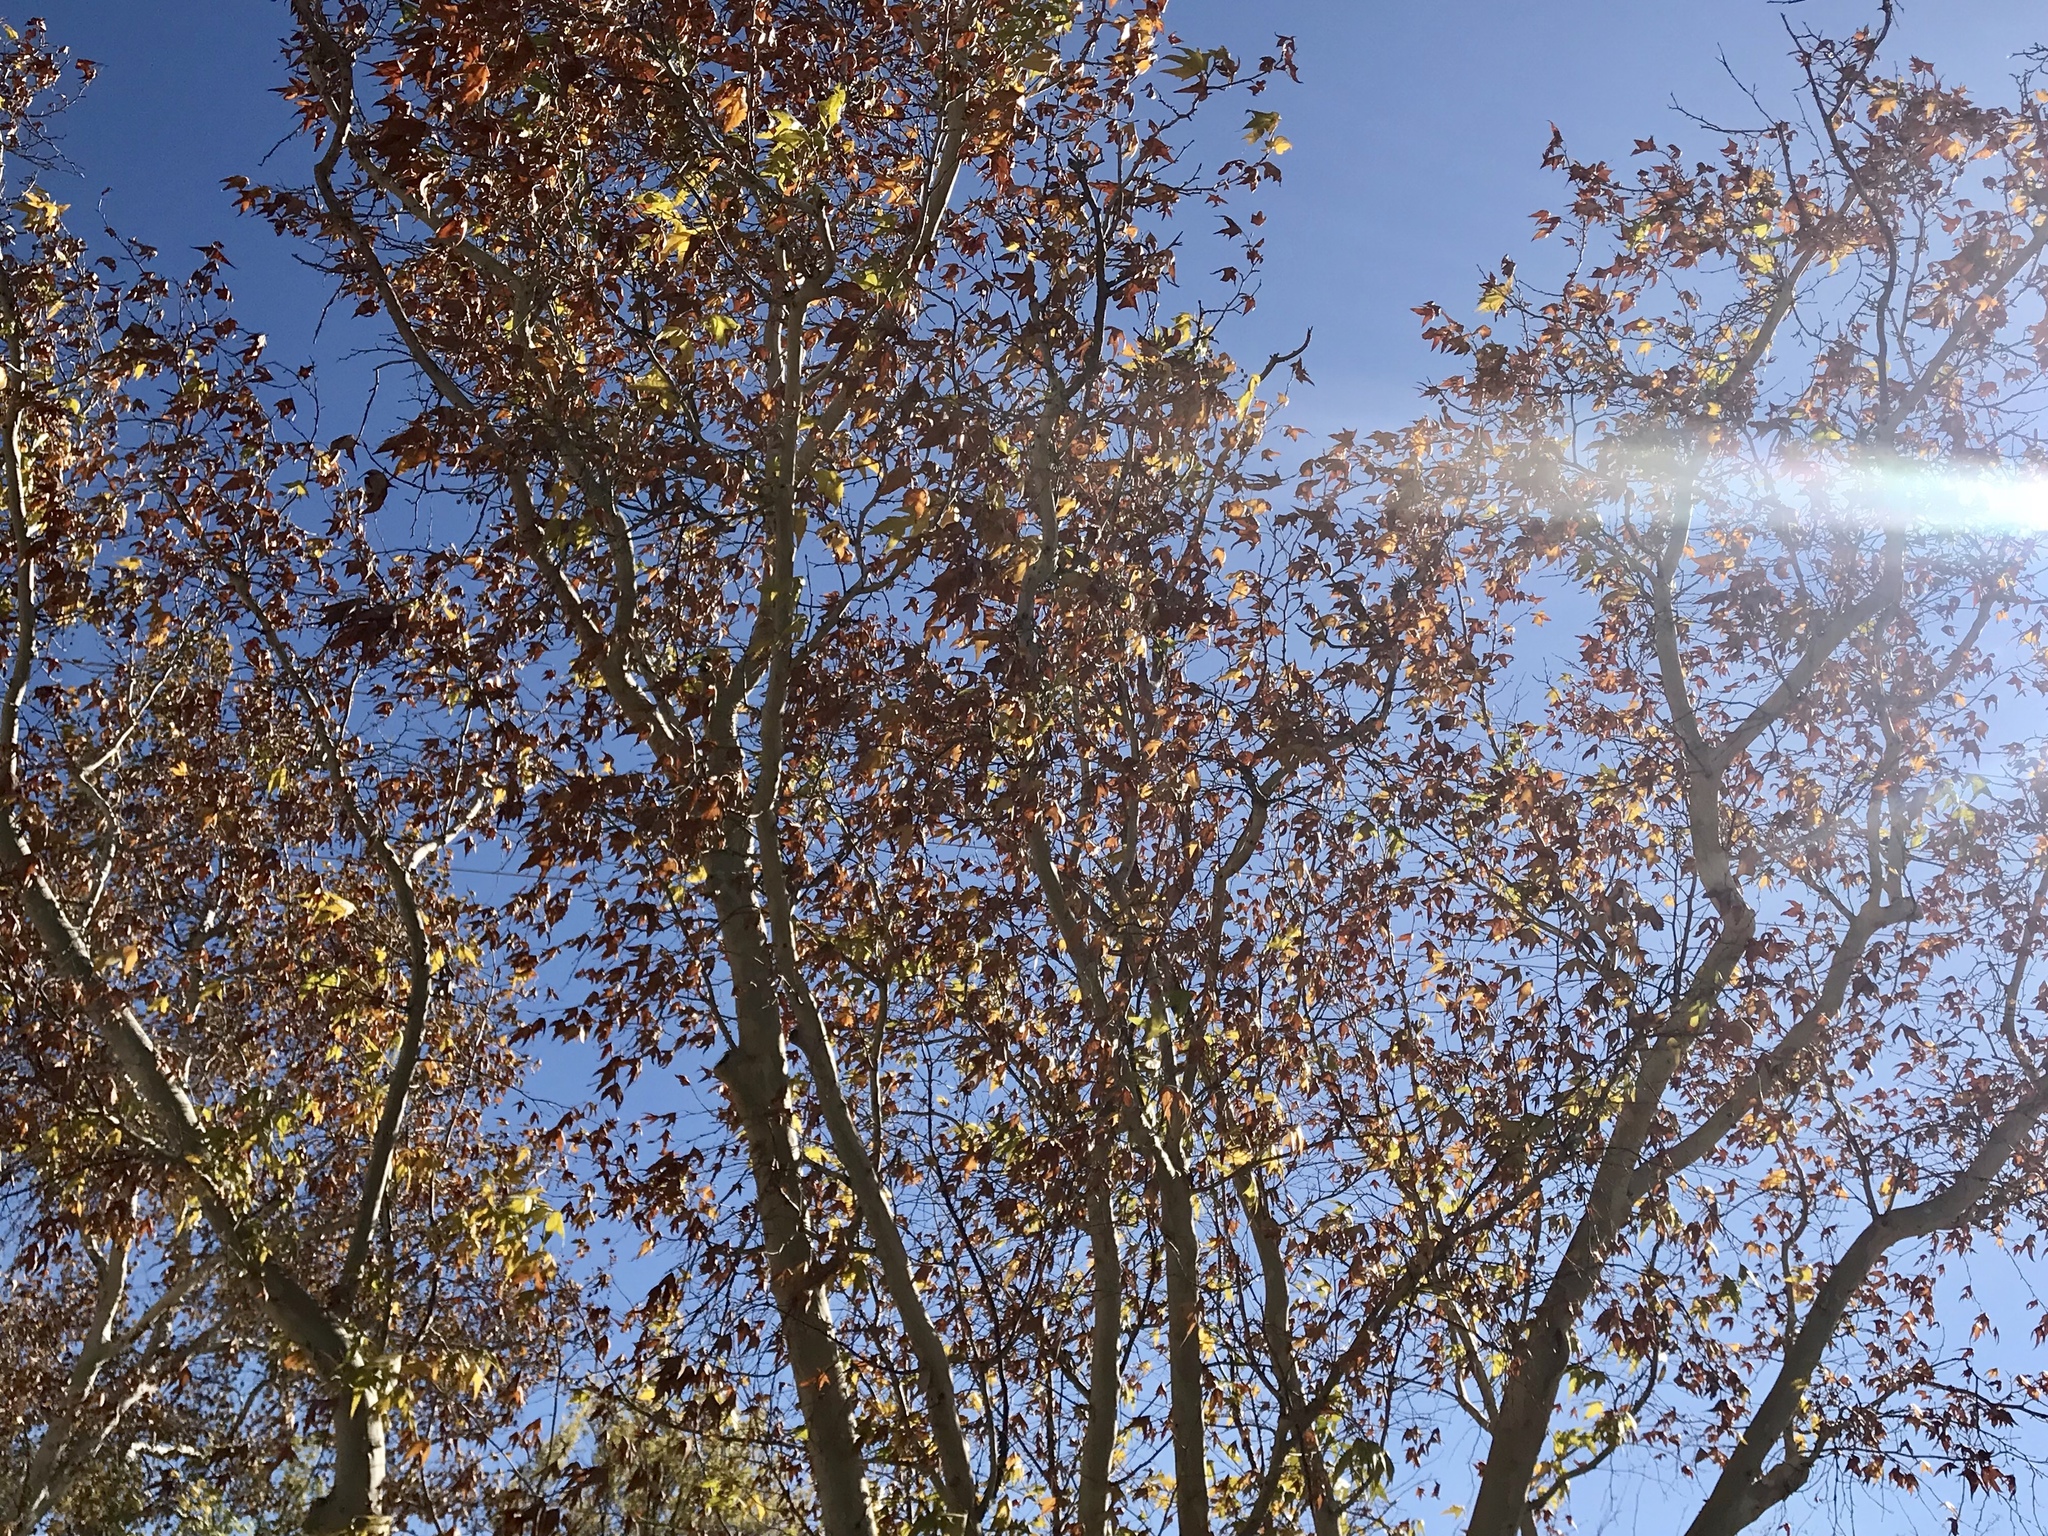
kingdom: Plantae
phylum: Tracheophyta
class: Magnoliopsida
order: Proteales
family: Platanaceae
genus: Platanus
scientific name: Platanus wrightii
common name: Arizona sycamore
